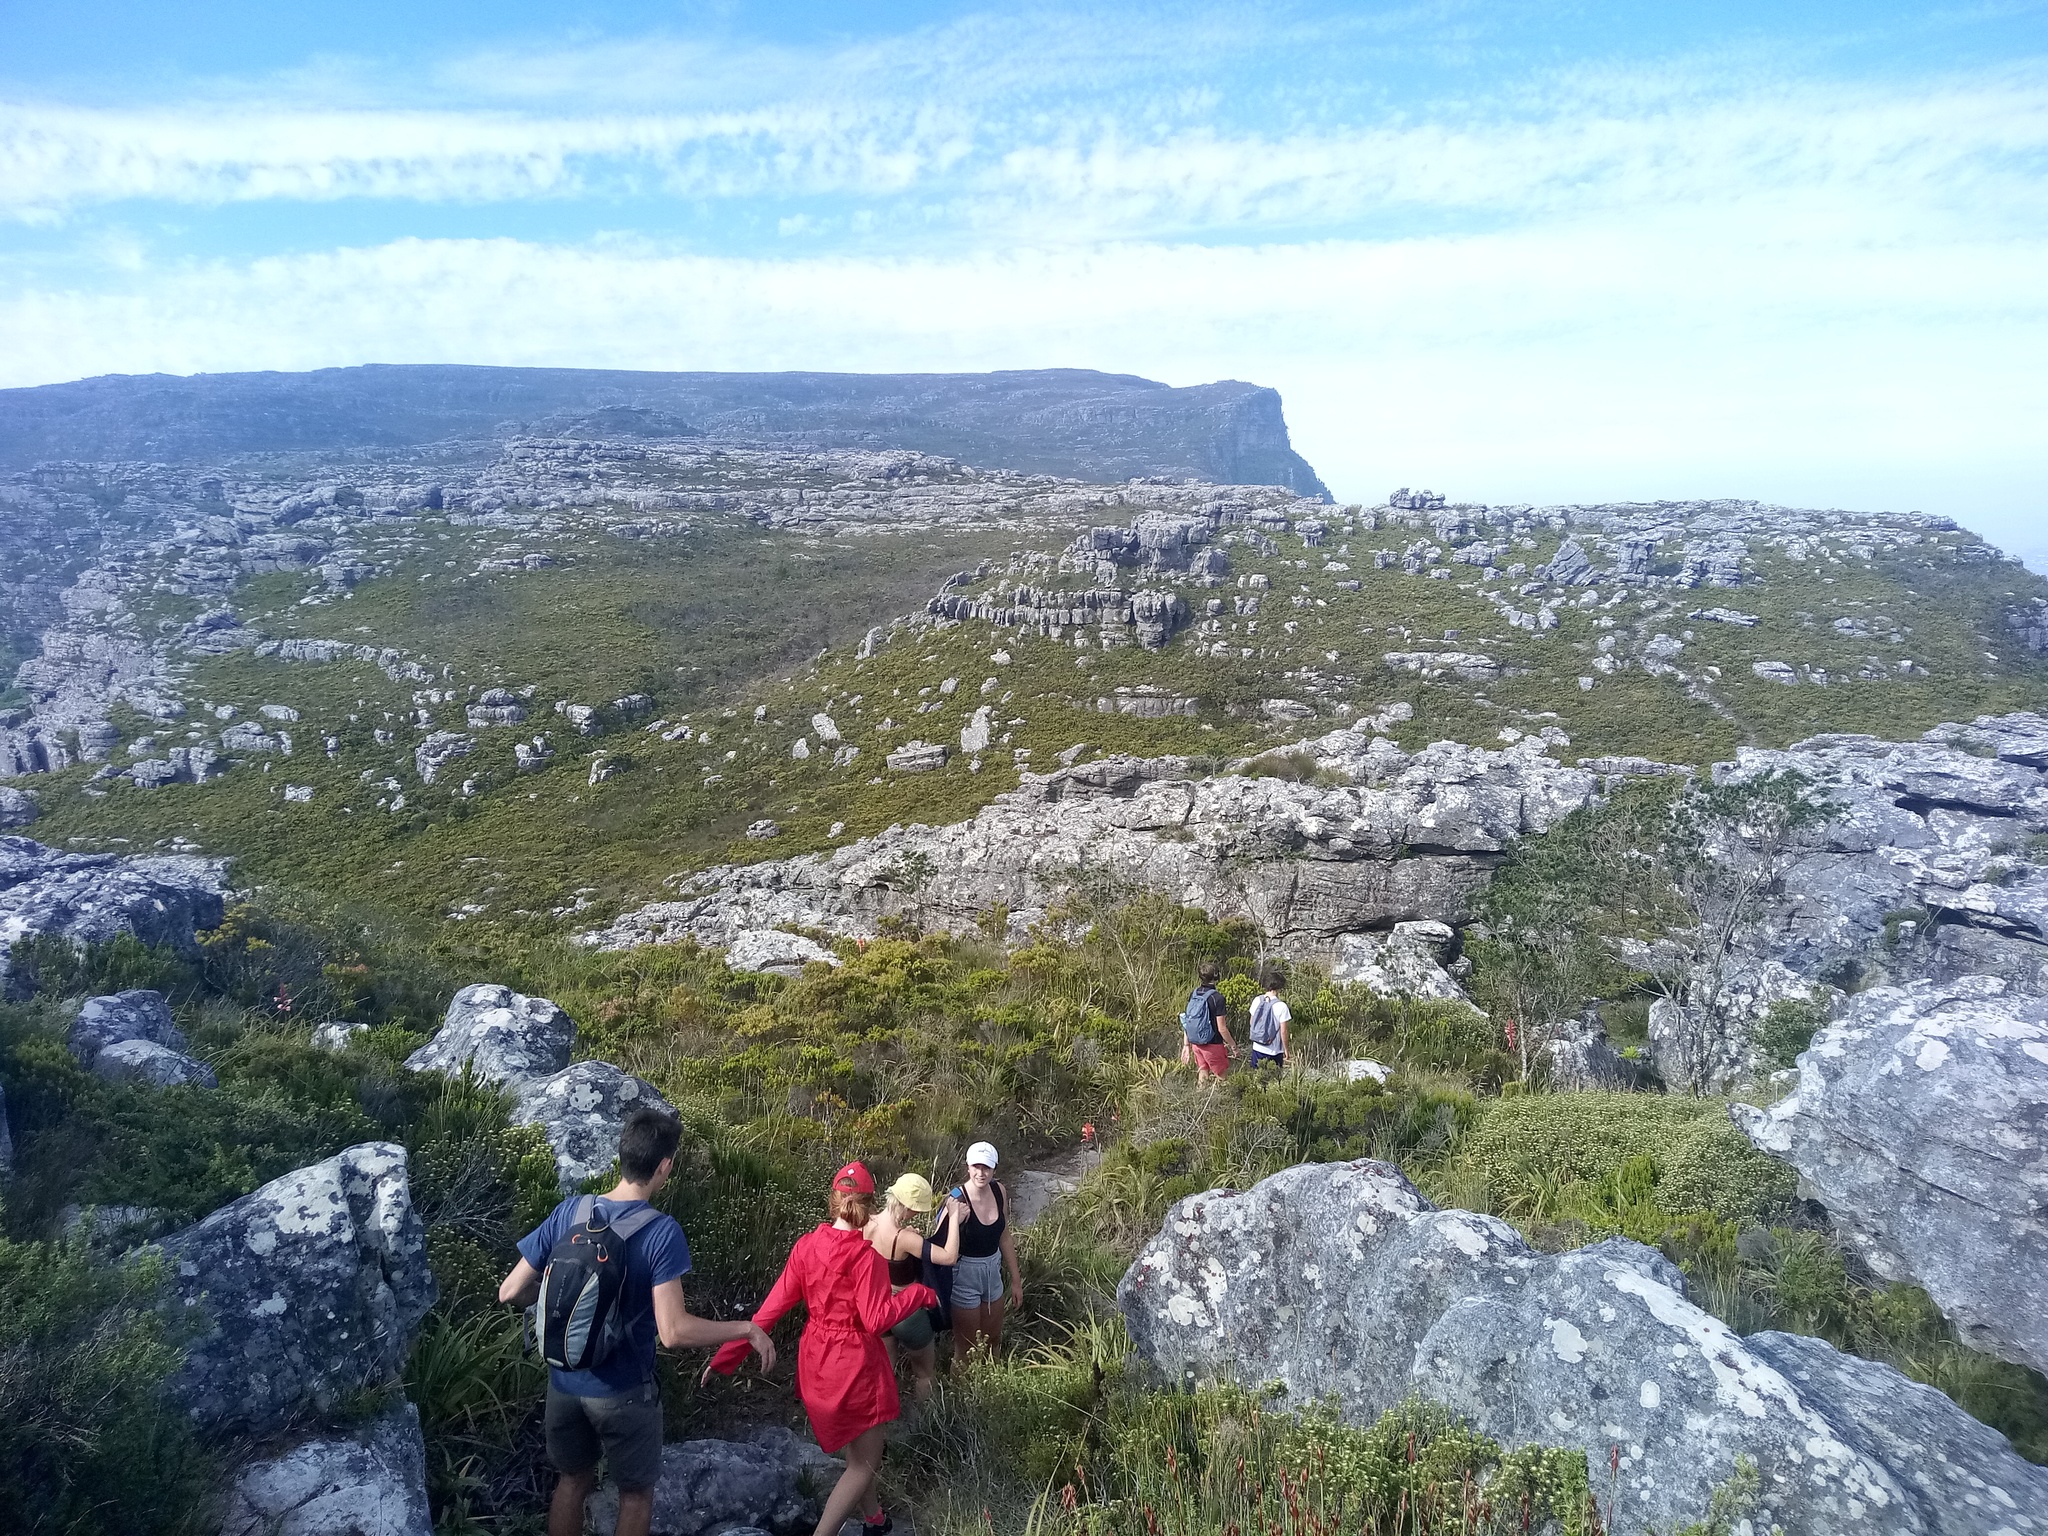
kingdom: Plantae
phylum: Tracheophyta
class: Magnoliopsida
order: Rosales
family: Rhamnaceae
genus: Phylica
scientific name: Phylica dioica
